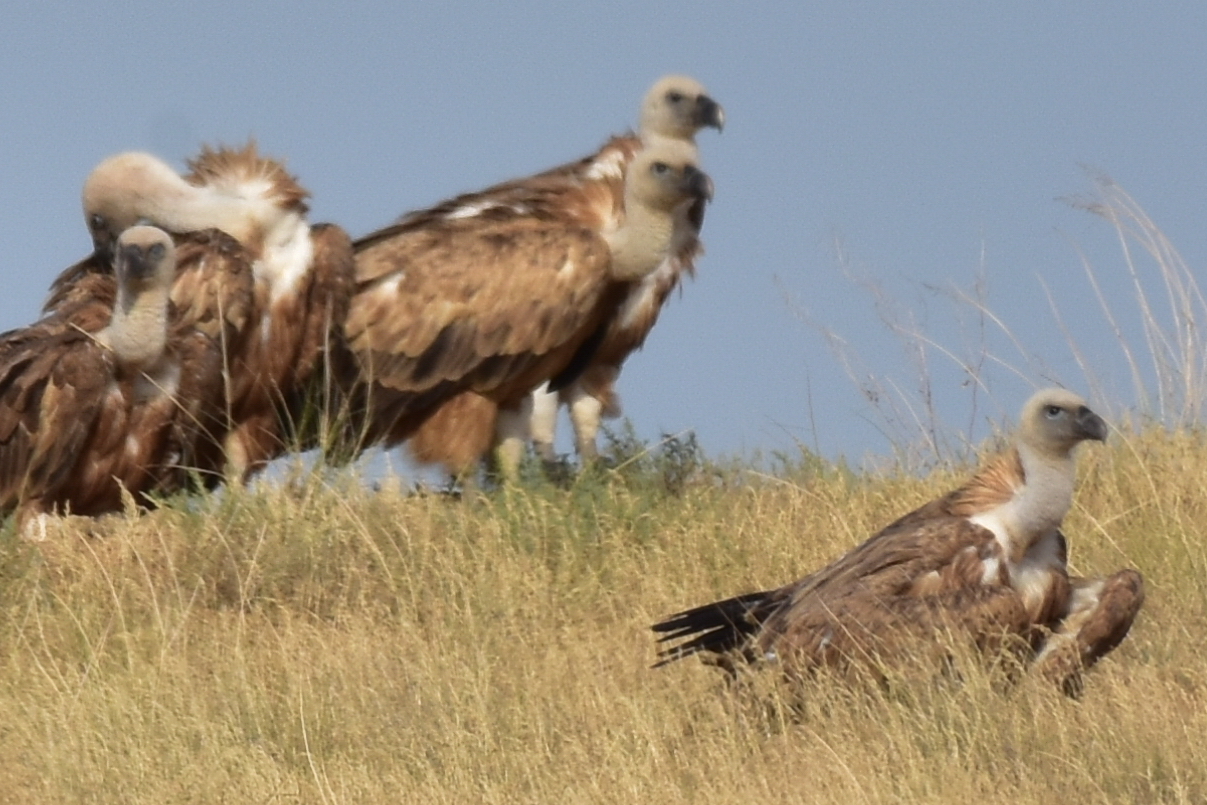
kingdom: Animalia
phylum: Chordata
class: Aves
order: Accipitriformes
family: Accipitridae
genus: Gyps
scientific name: Gyps fulvus
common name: Griffon vulture
